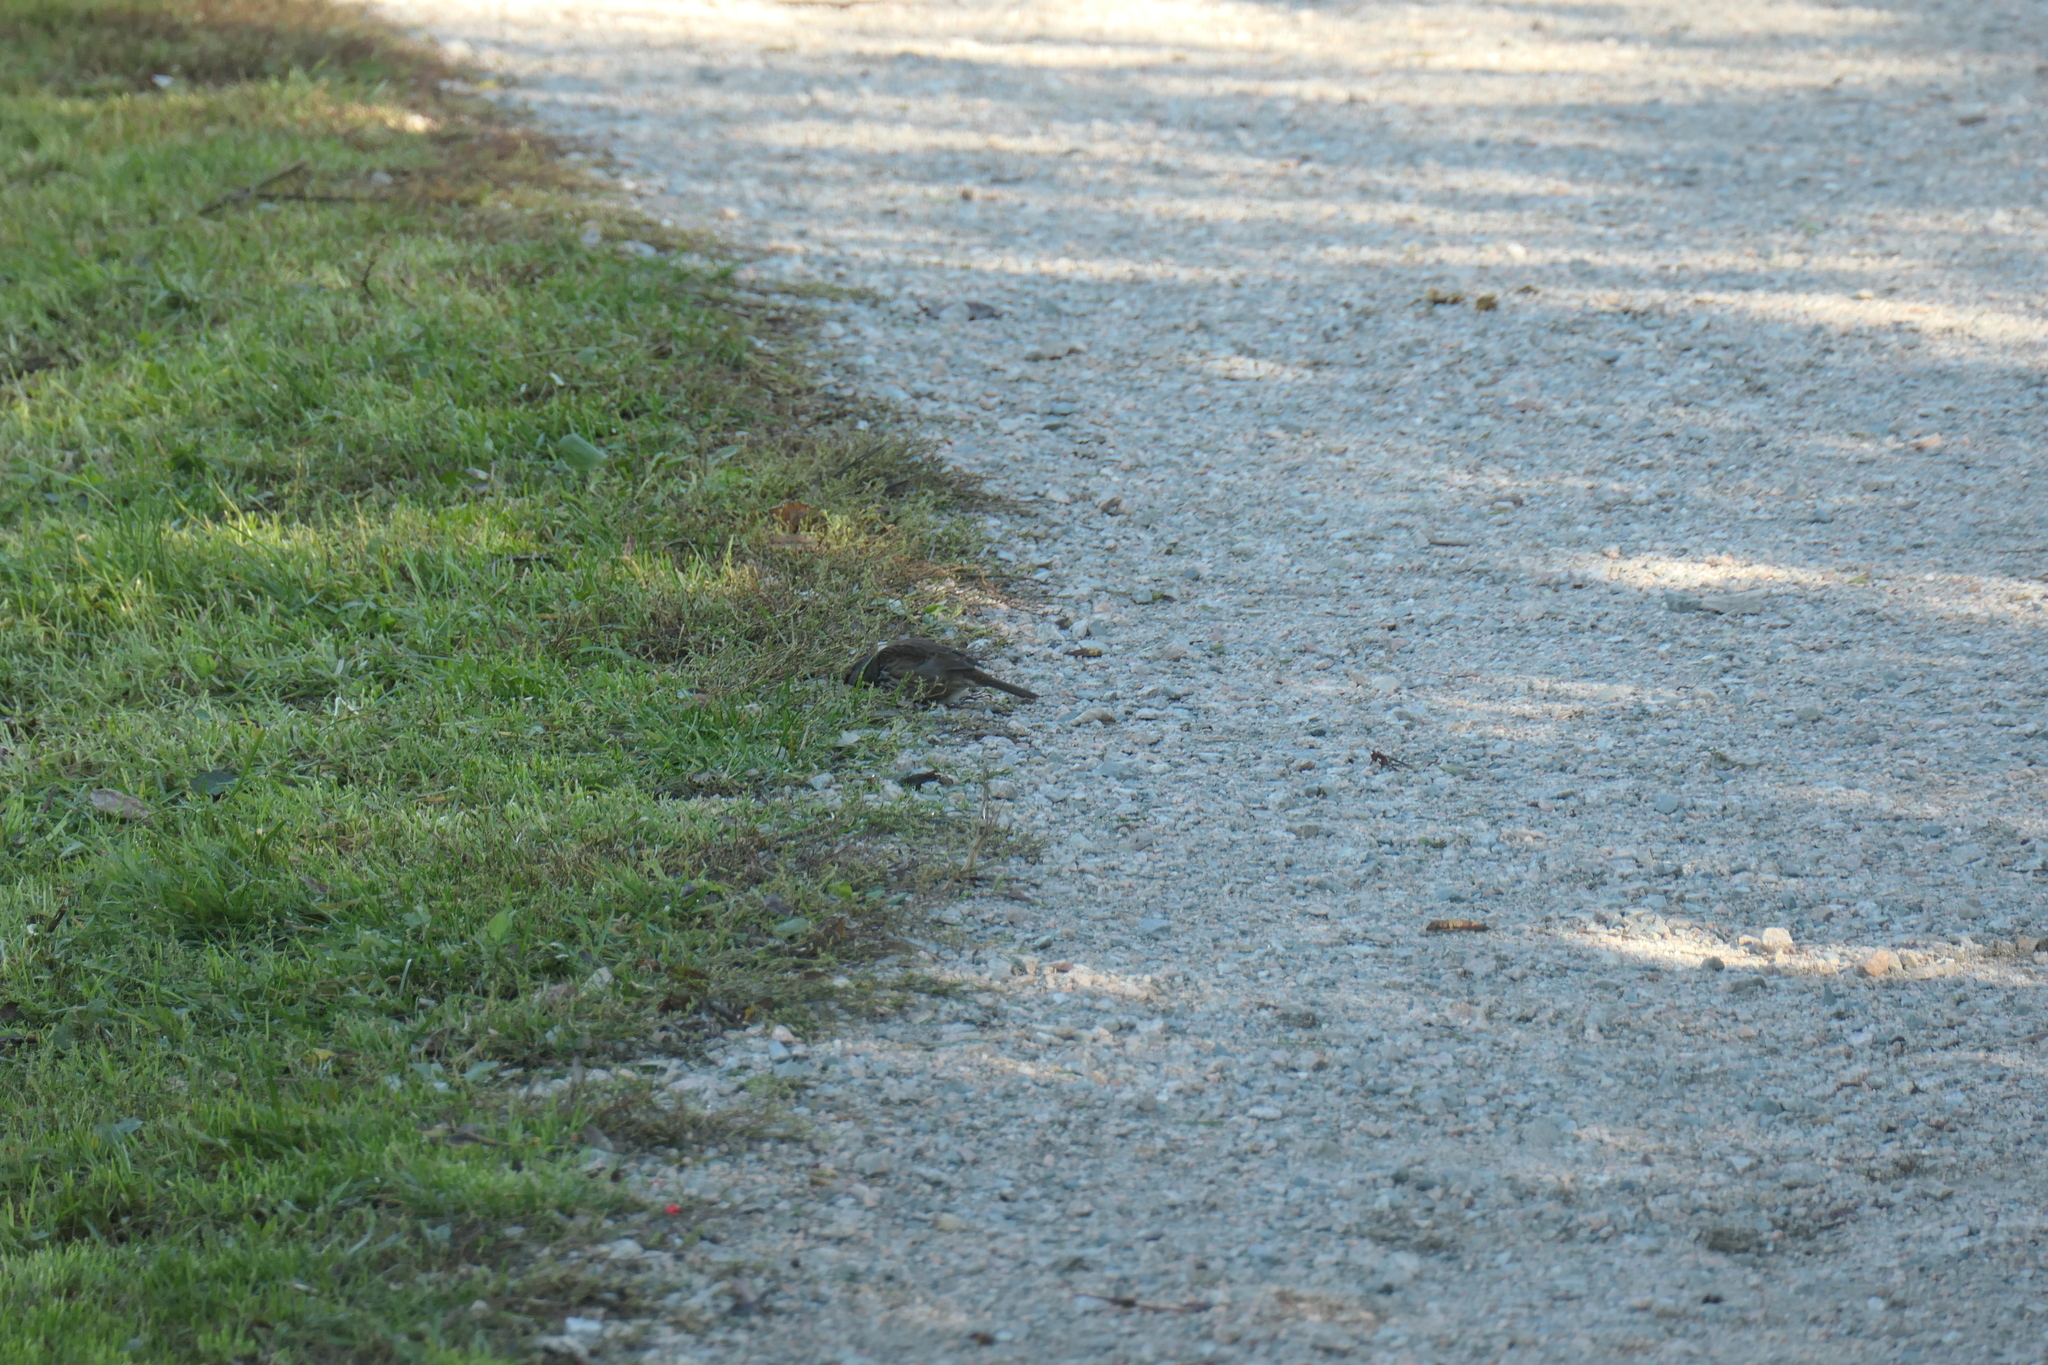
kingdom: Animalia
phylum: Chordata
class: Aves
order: Passeriformes
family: Passerellidae
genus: Melospiza
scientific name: Melospiza melodia
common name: Song sparrow
